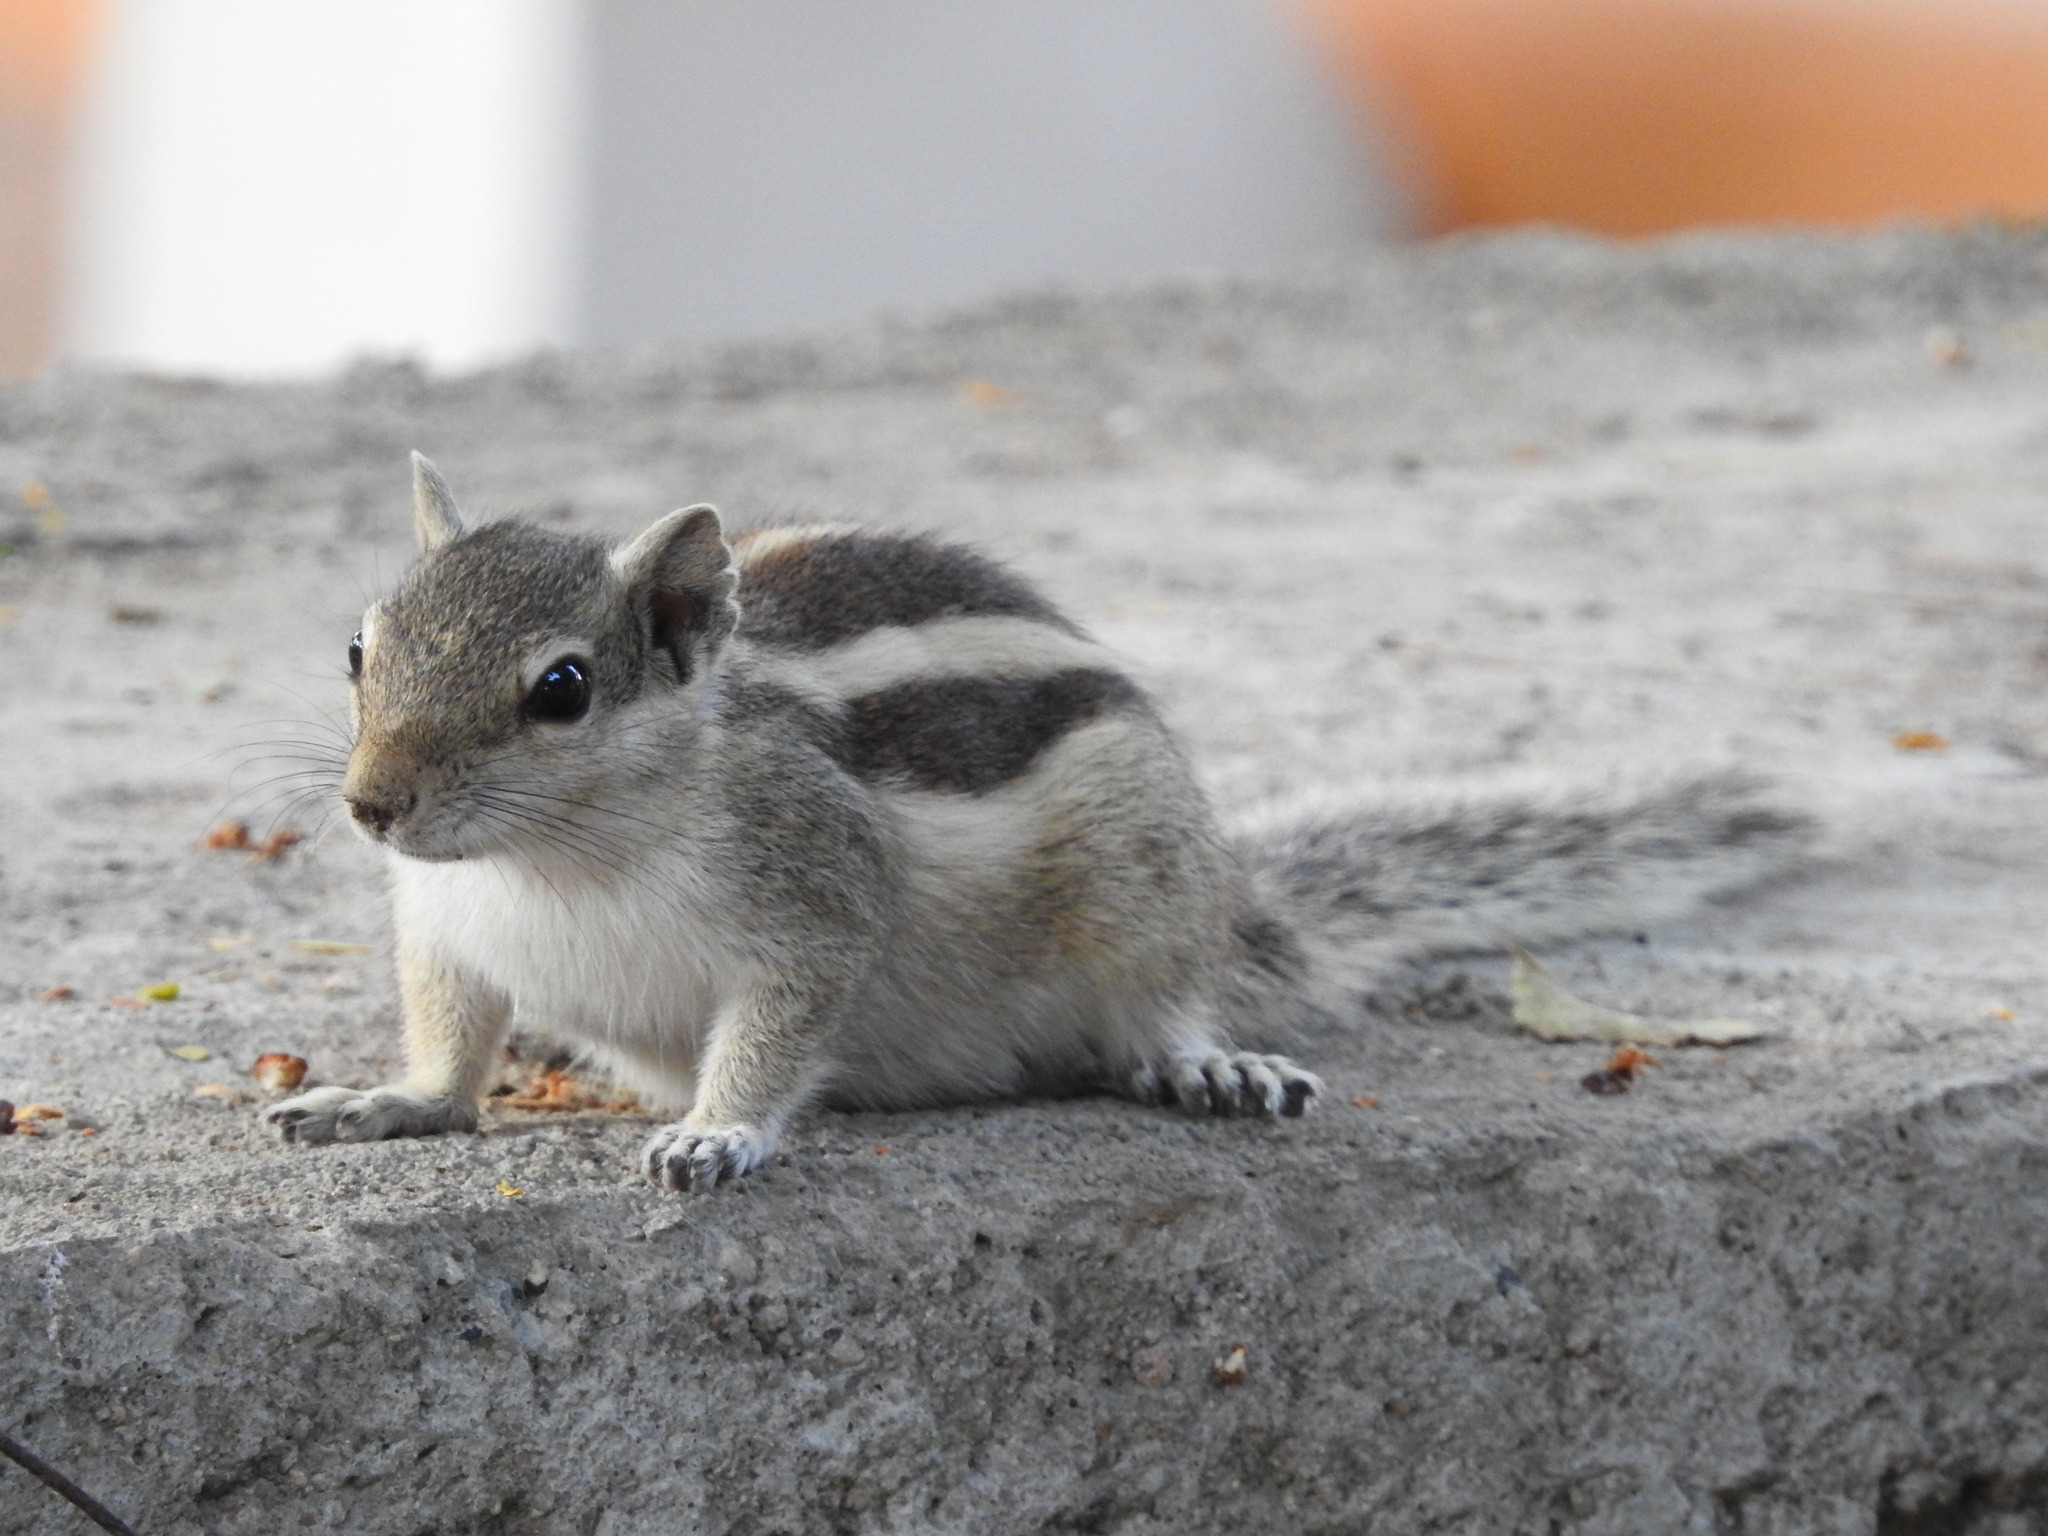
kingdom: Animalia
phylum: Chordata
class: Mammalia
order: Rodentia
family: Sciuridae
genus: Funambulus
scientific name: Funambulus pennantii
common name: Northern palm squirrel
